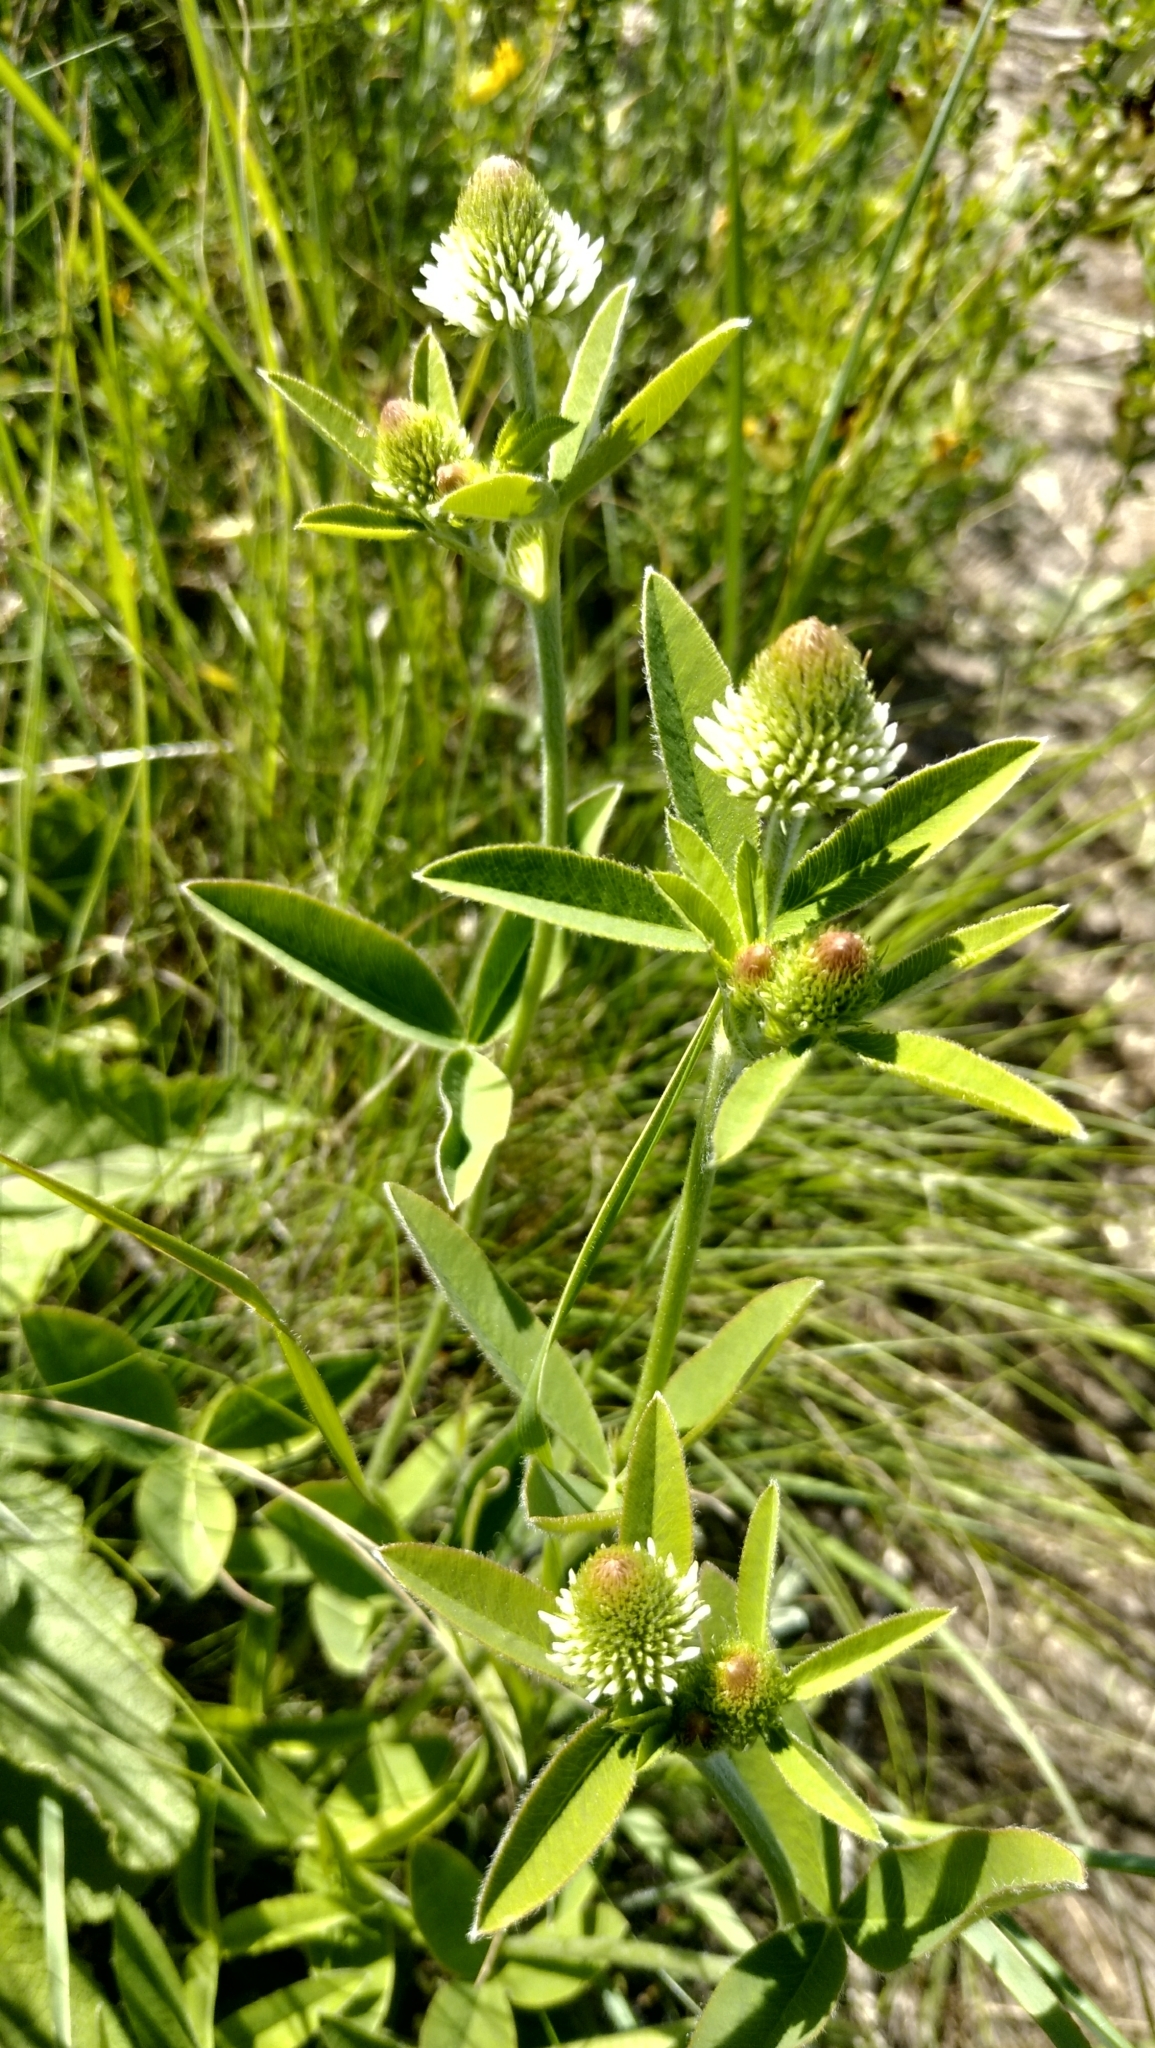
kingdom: Plantae
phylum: Tracheophyta
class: Magnoliopsida
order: Fabales
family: Fabaceae
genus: Trifolium
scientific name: Trifolium montanum
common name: Mountain clover
